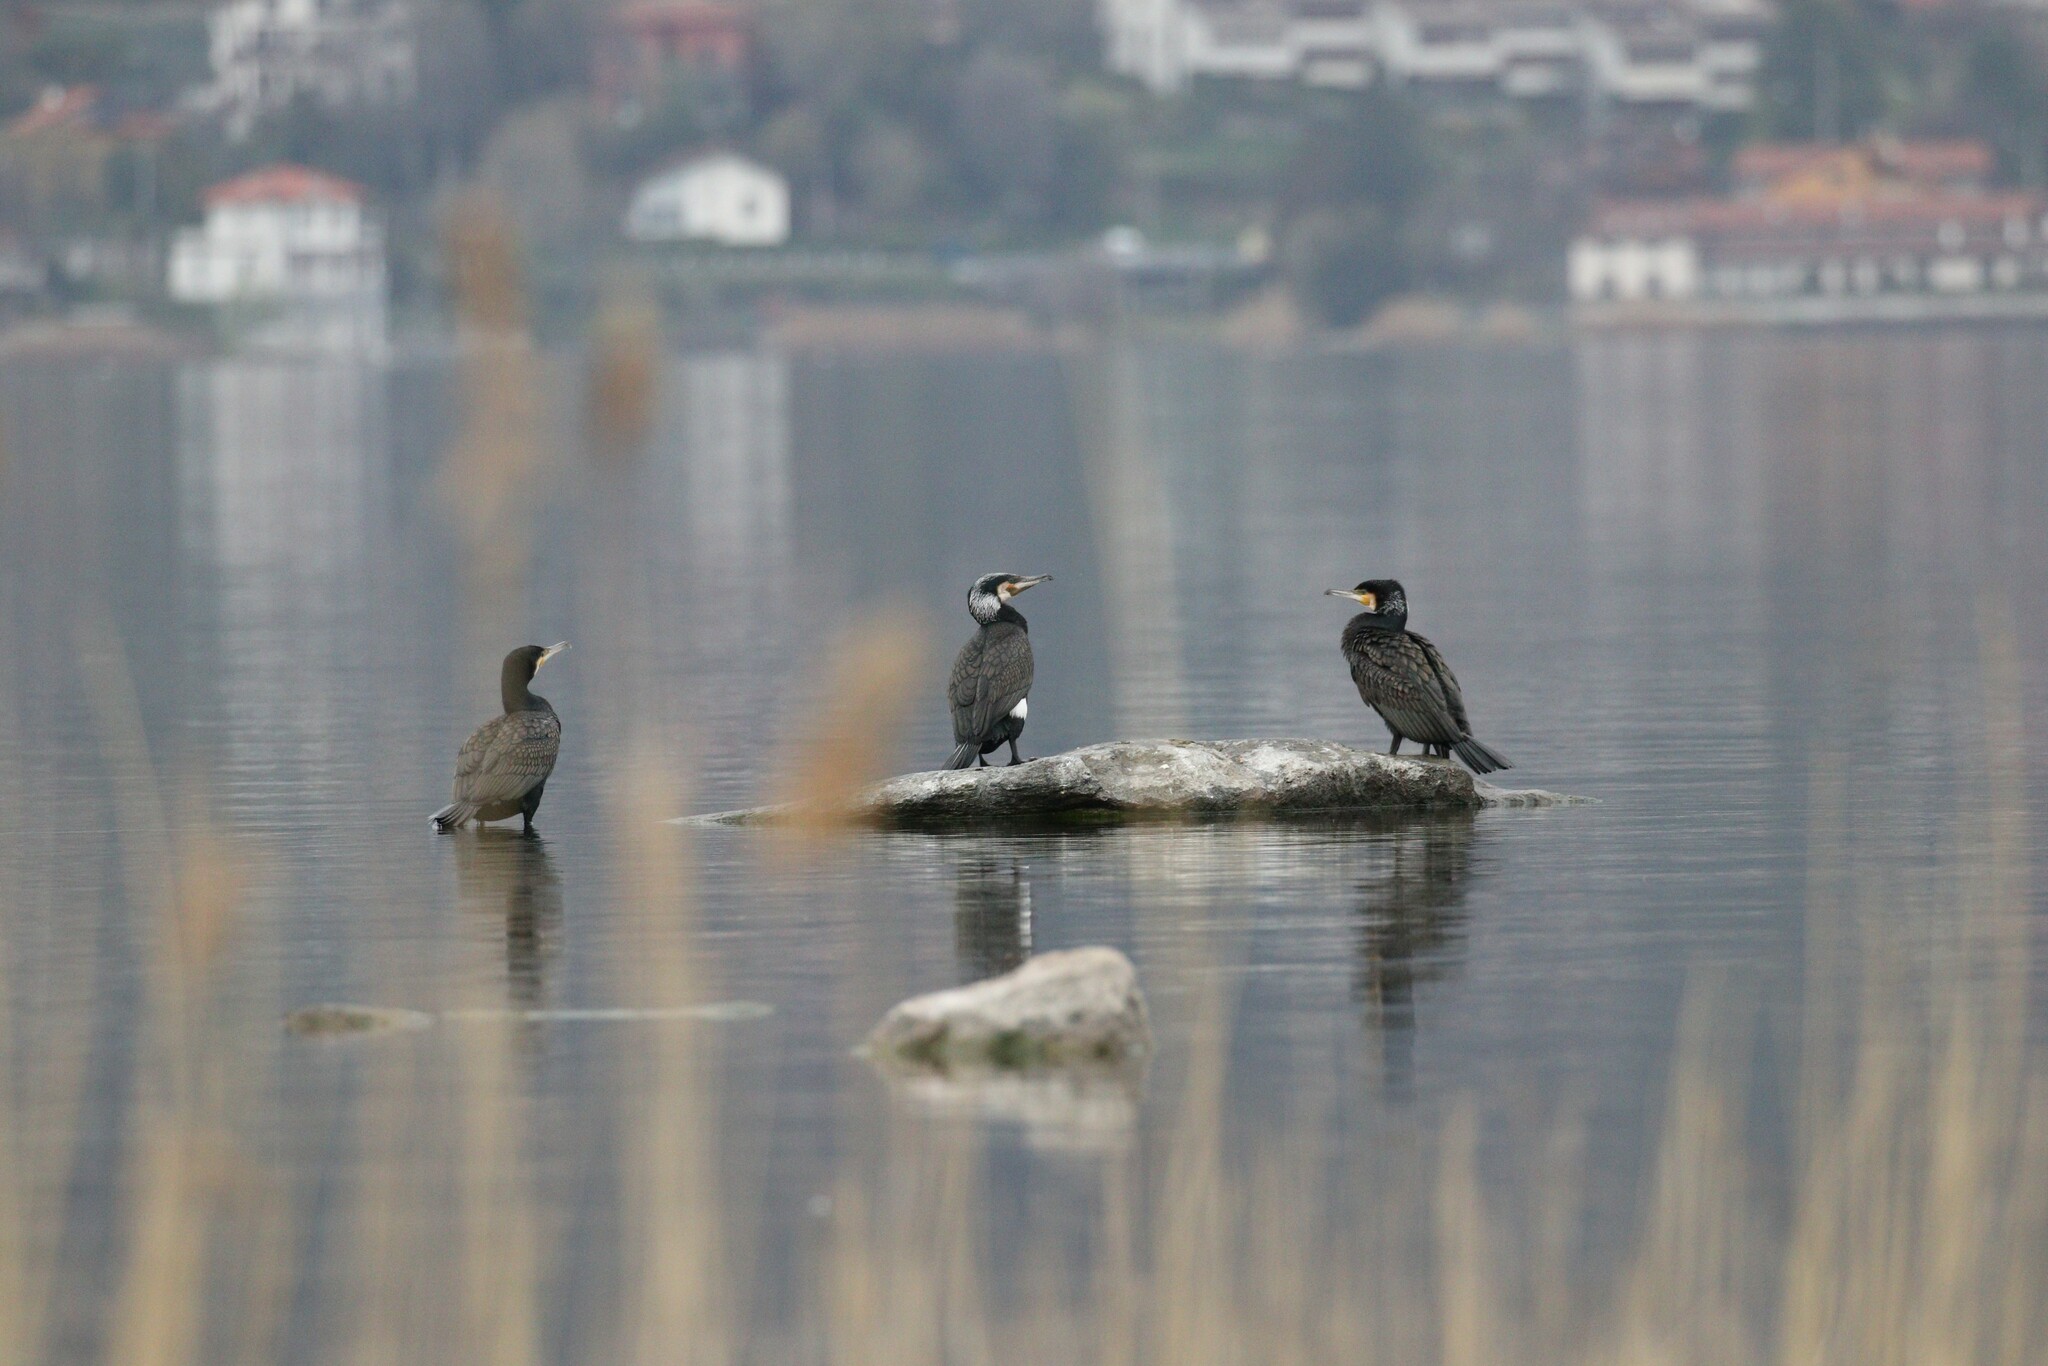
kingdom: Animalia
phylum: Chordata
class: Aves
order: Suliformes
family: Phalacrocoracidae
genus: Phalacrocorax
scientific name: Phalacrocorax carbo
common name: Great cormorant
